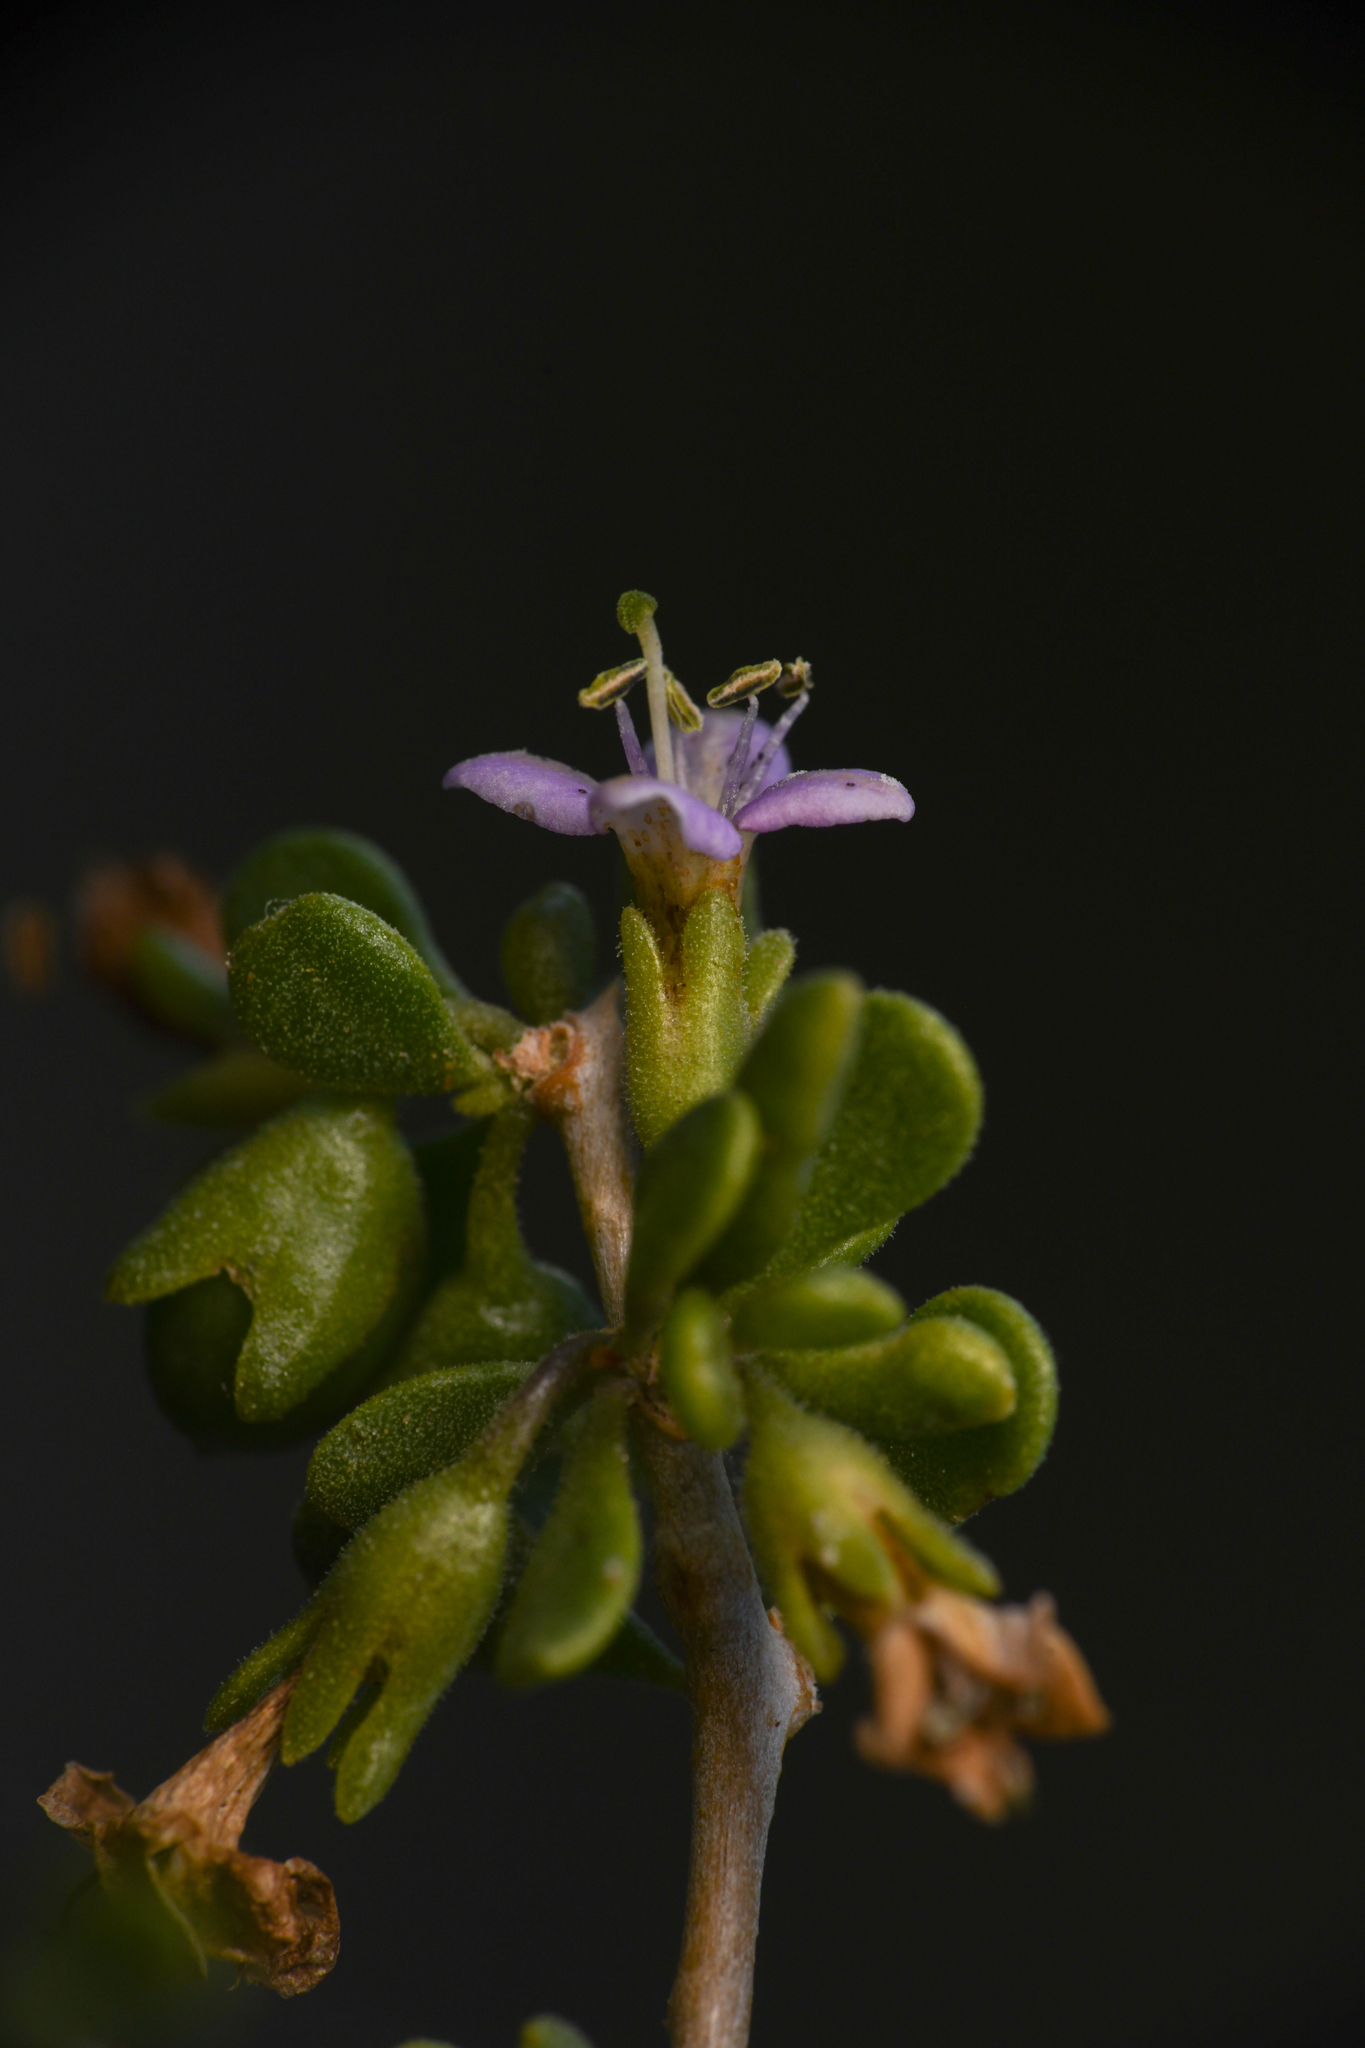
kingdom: Plantae
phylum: Tracheophyta
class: Magnoliopsida
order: Solanales
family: Solanaceae
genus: Lycium
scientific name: Lycium brevipes
